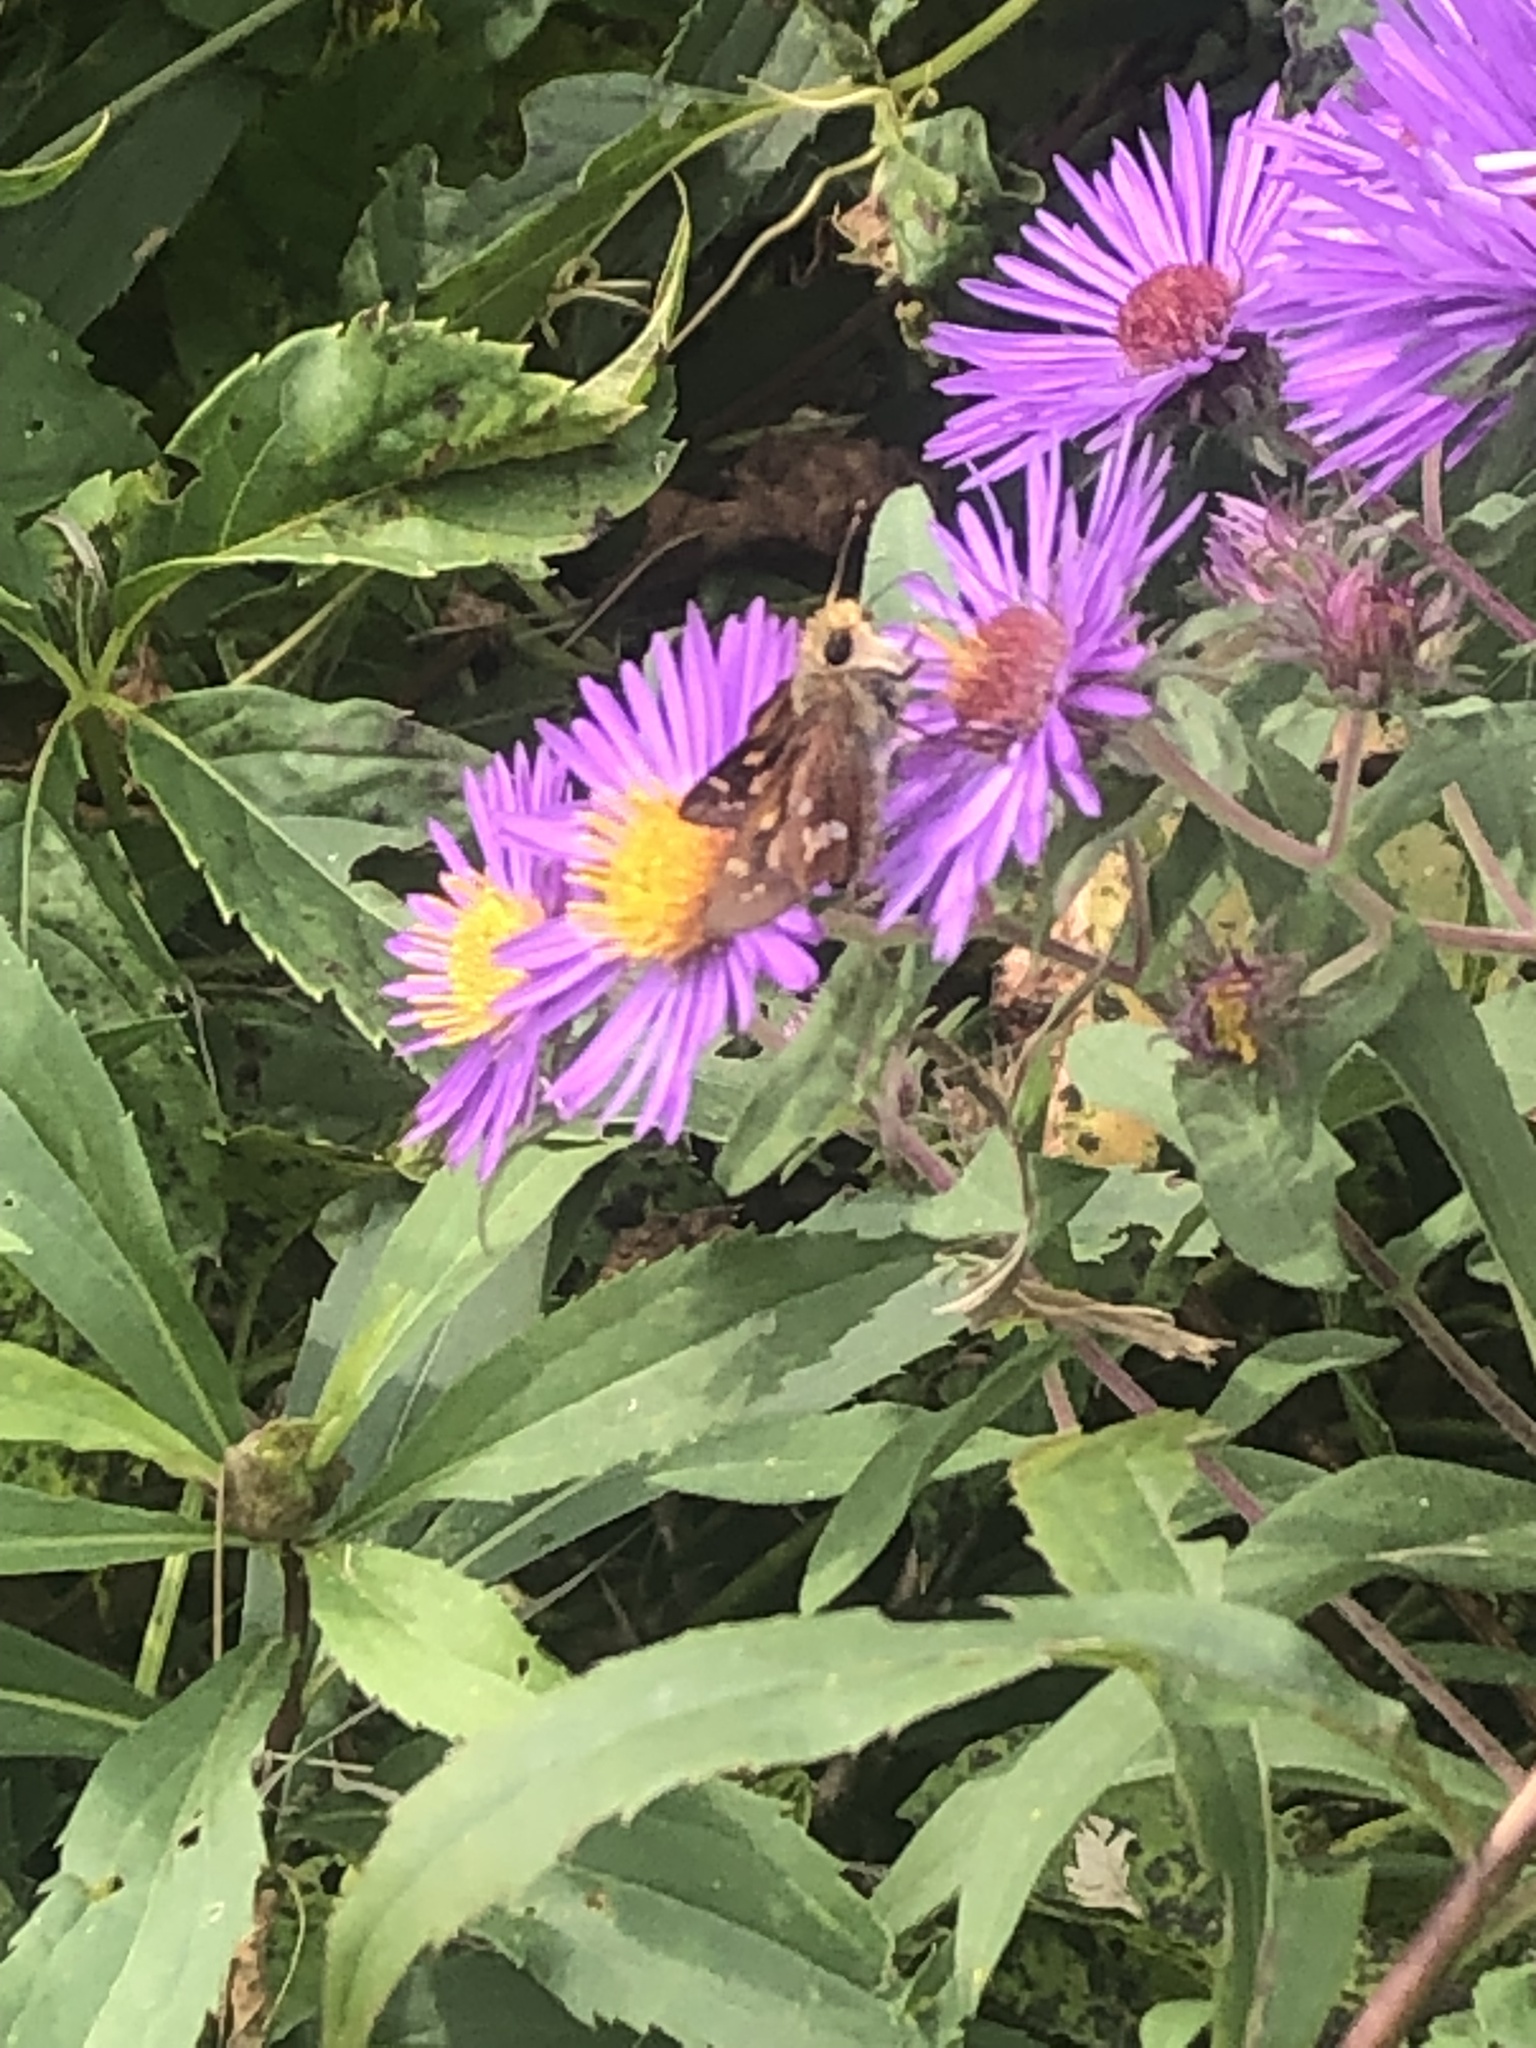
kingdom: Animalia
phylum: Arthropoda
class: Insecta
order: Lepidoptera
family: Hesperiidae
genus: Hesperia
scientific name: Hesperia leonardus
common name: Leonard's skipper
